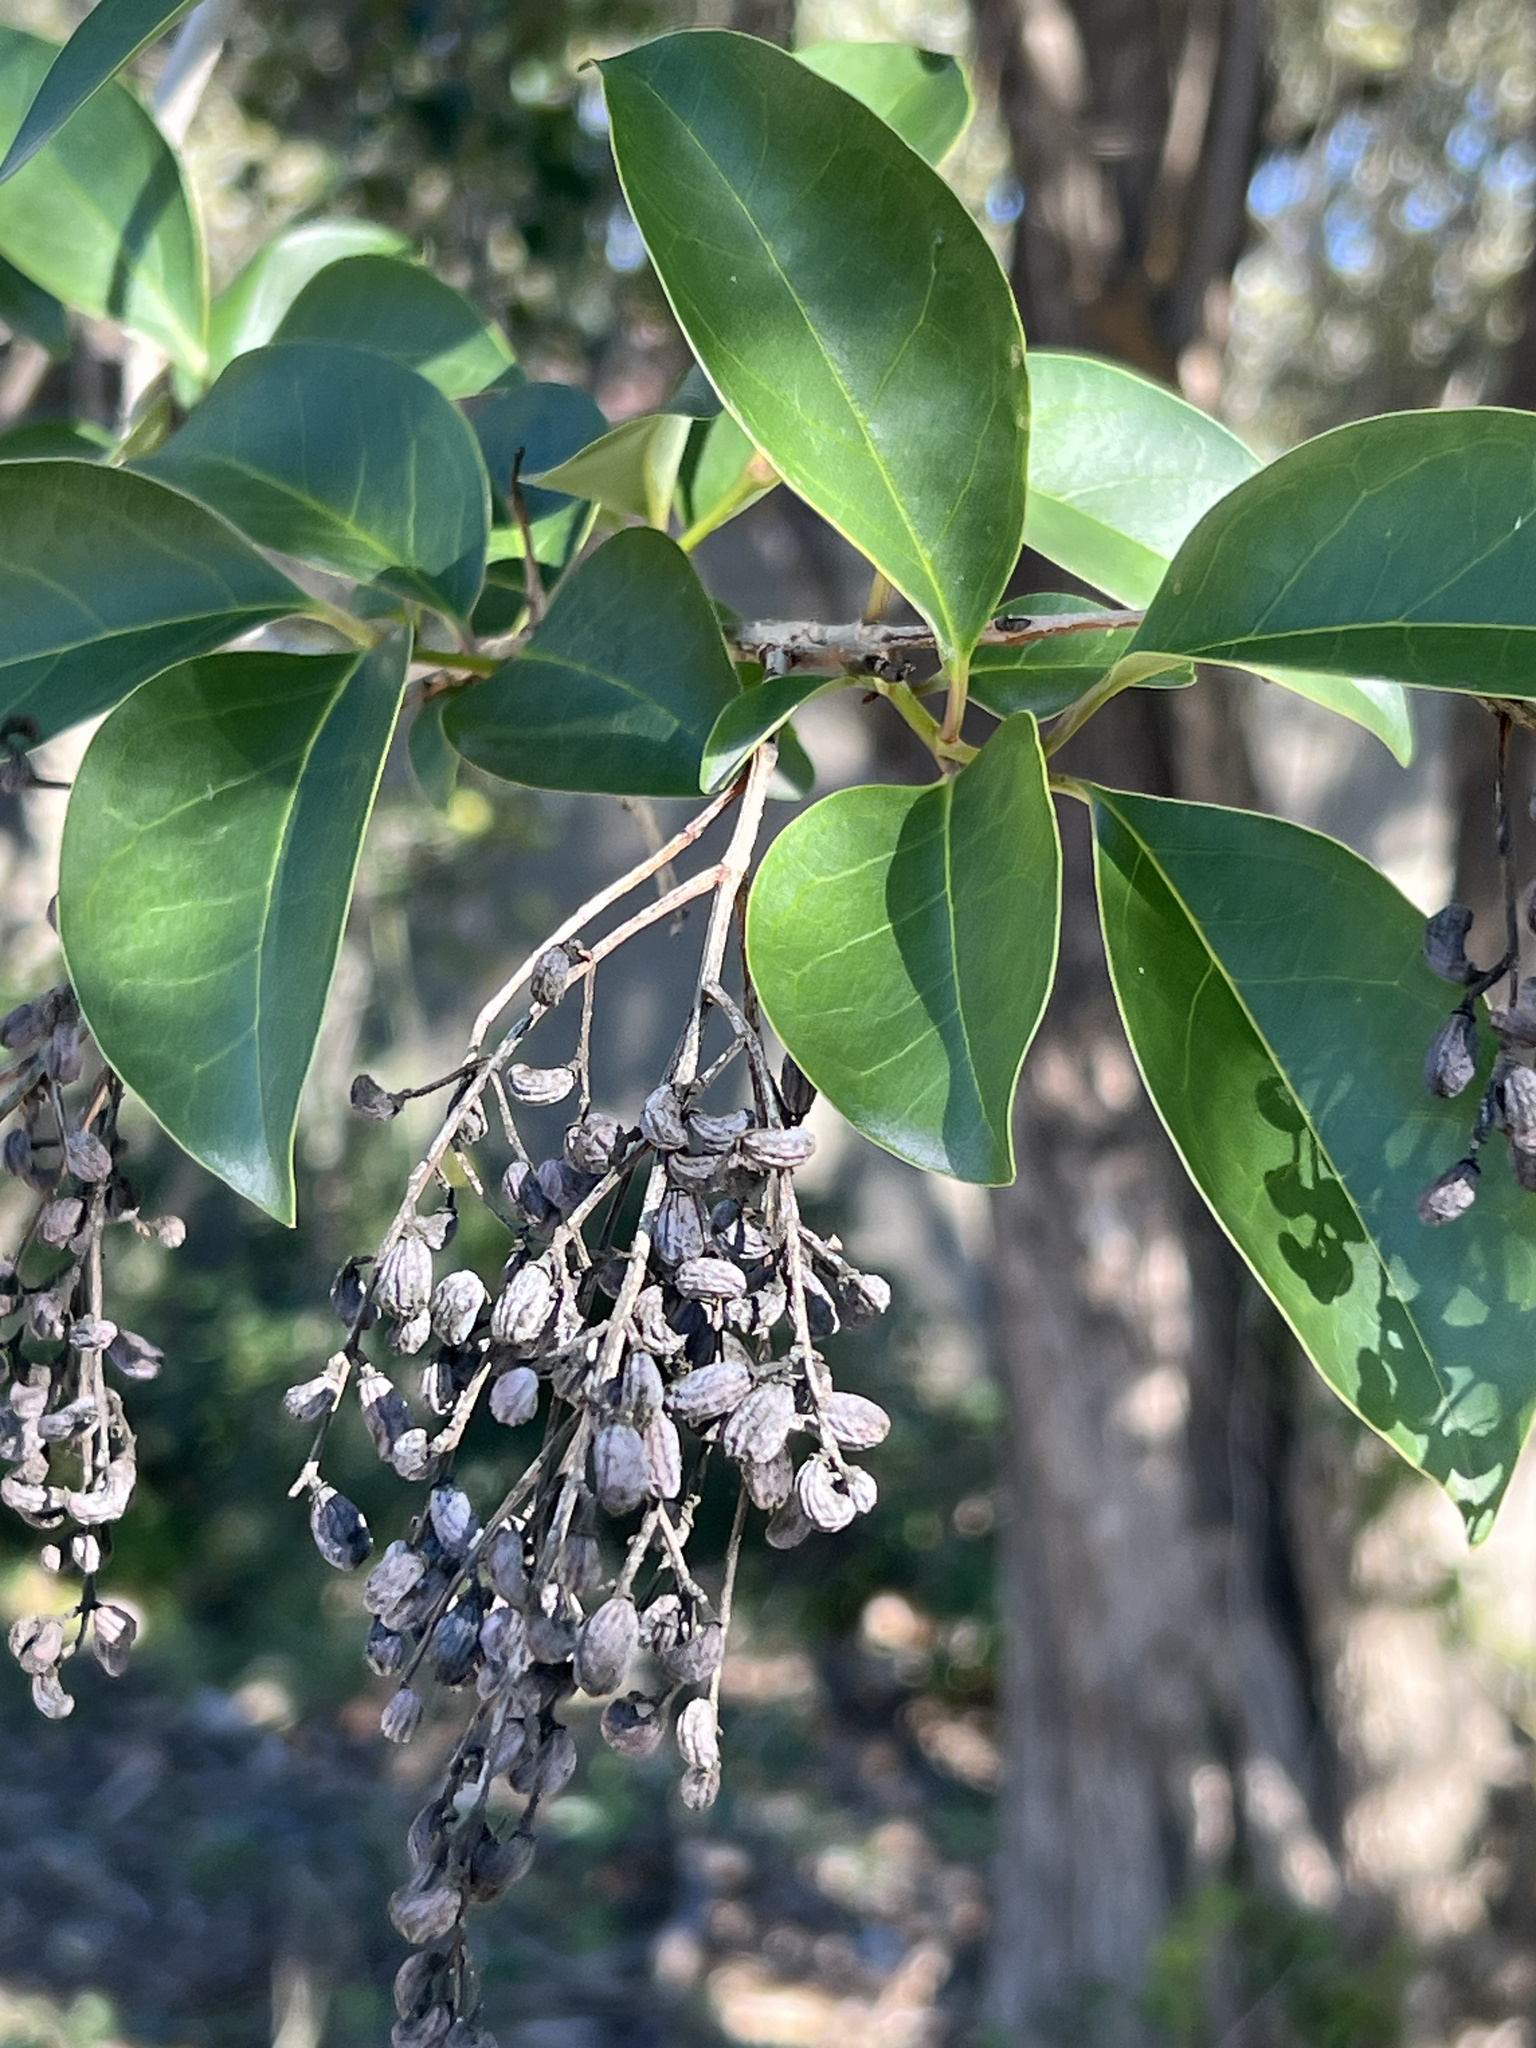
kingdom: Plantae
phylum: Tracheophyta
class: Magnoliopsida
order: Lamiales
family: Oleaceae
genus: Ligustrum
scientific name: Ligustrum lucidum
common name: Glossy privet
